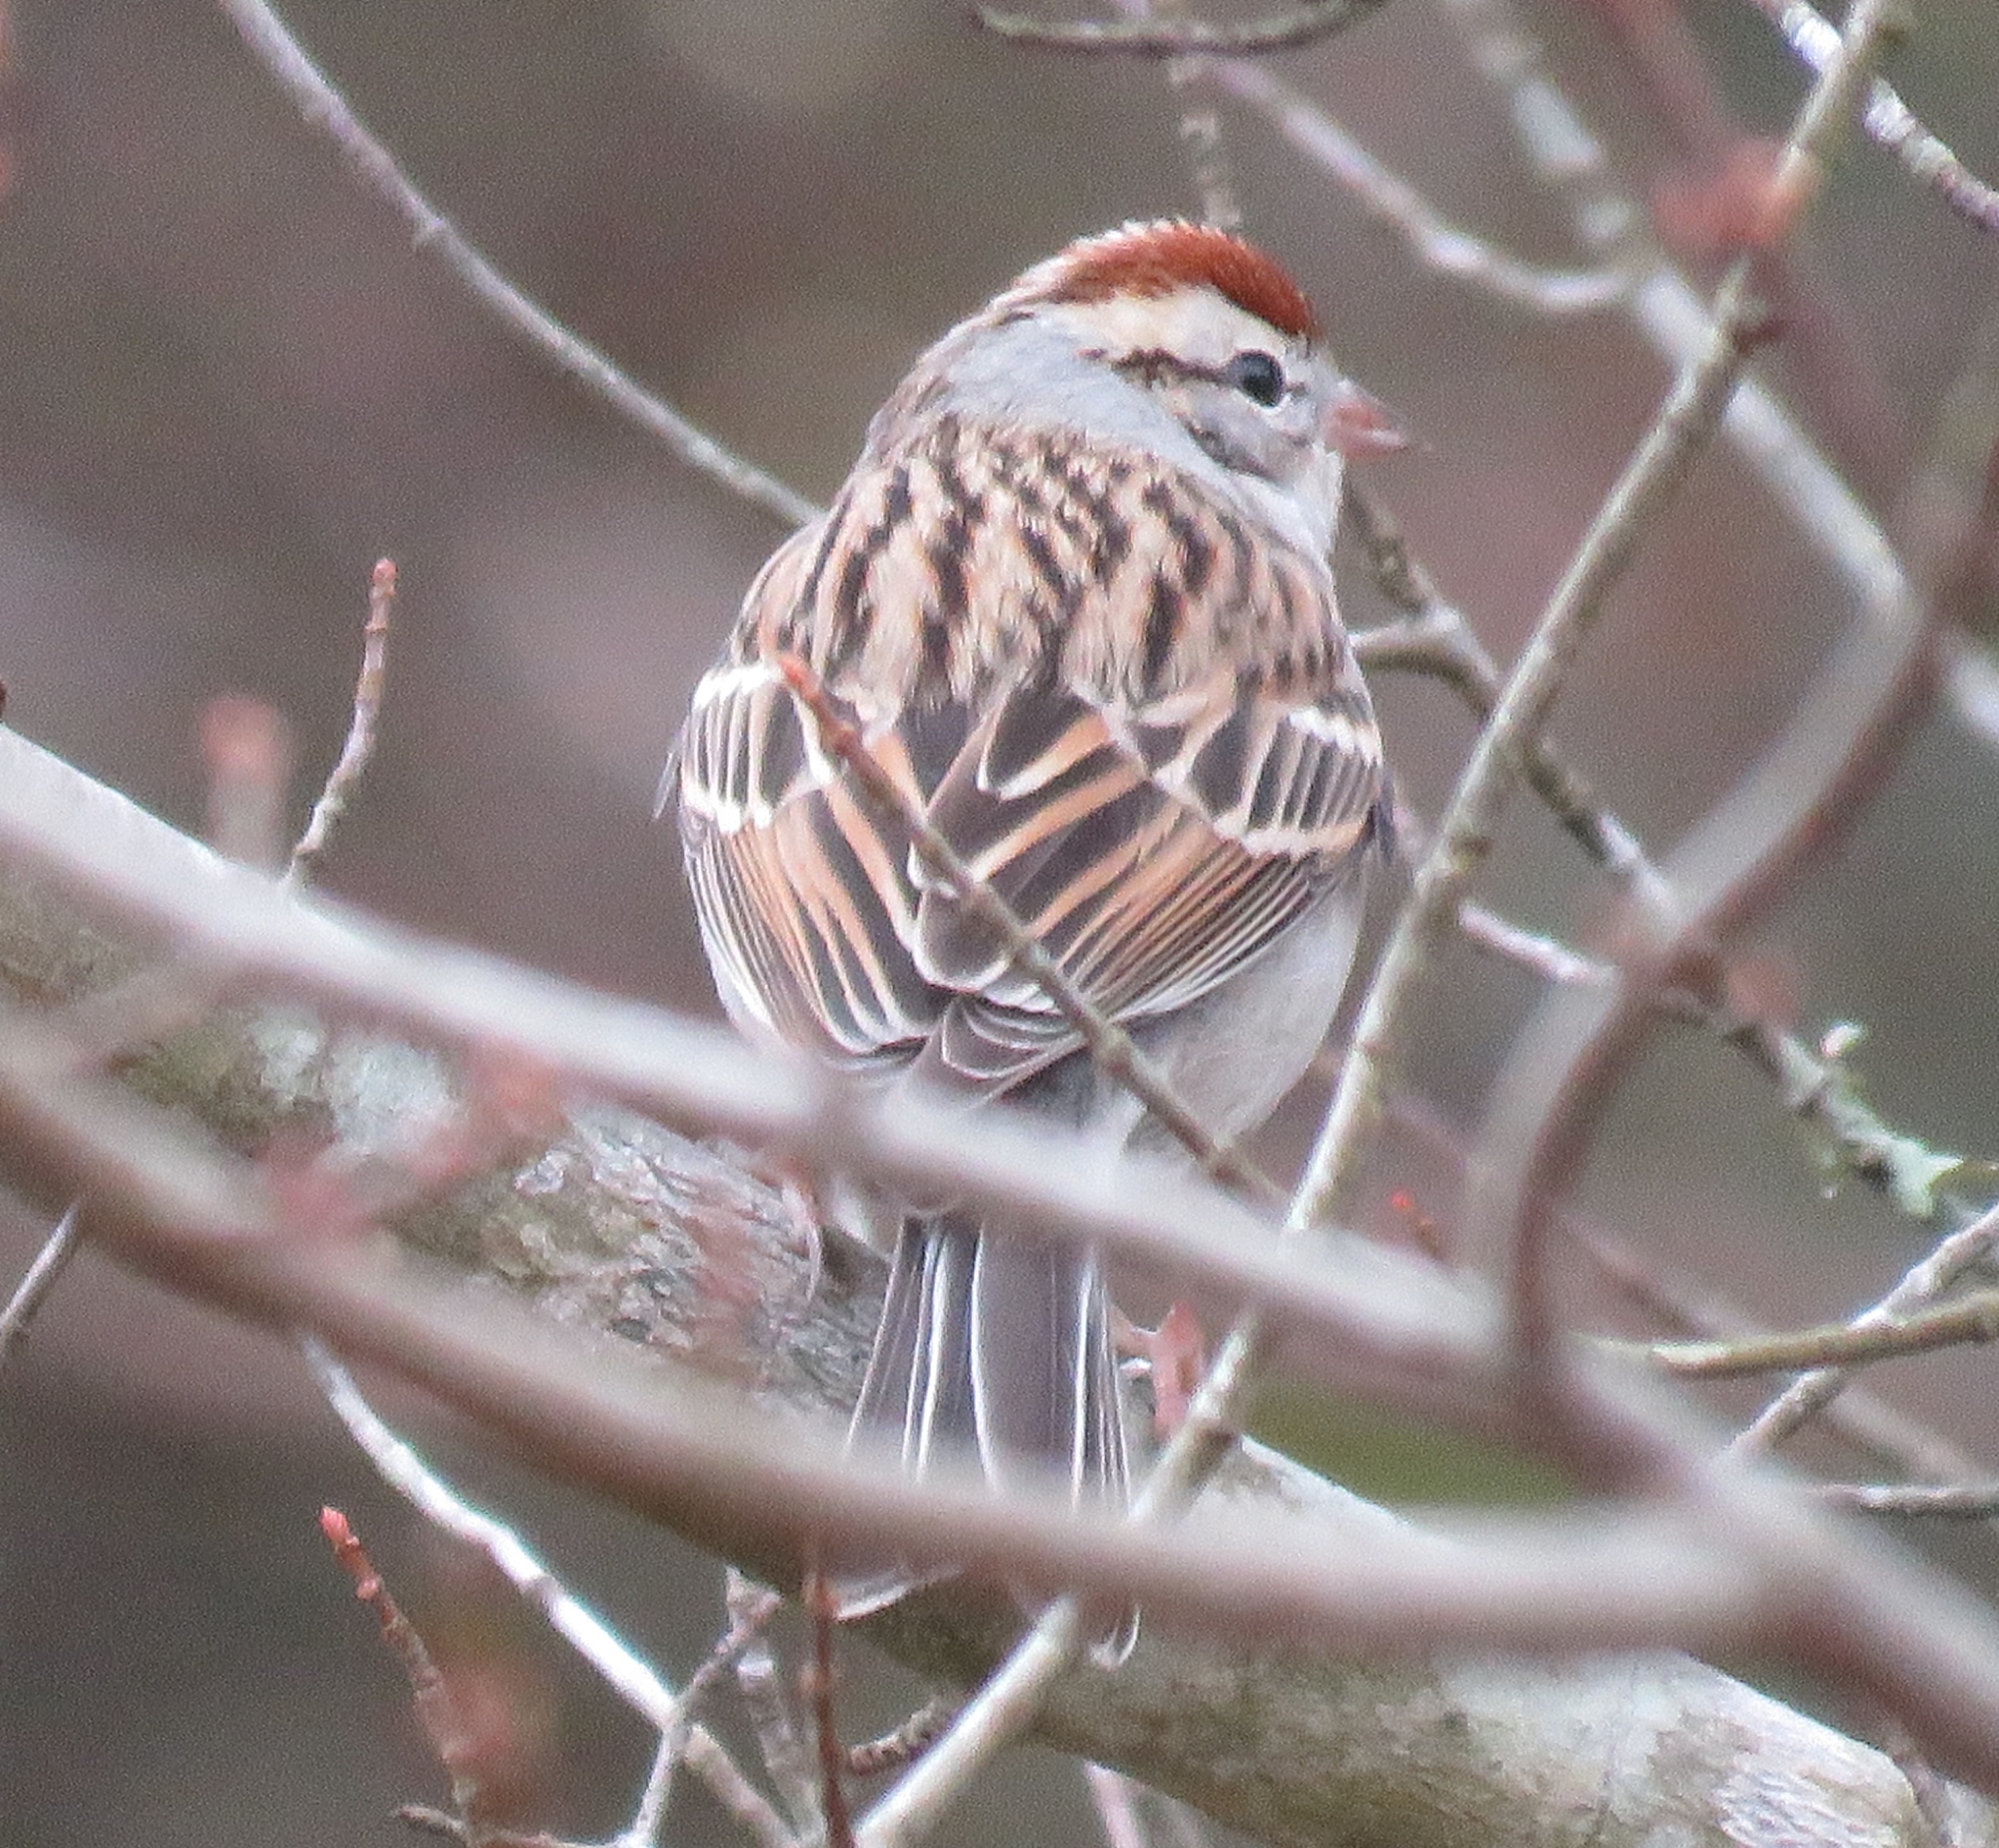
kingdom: Animalia
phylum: Chordata
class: Aves
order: Passeriformes
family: Passerellidae
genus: Spizella
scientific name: Spizella passerina
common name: Chipping sparrow
